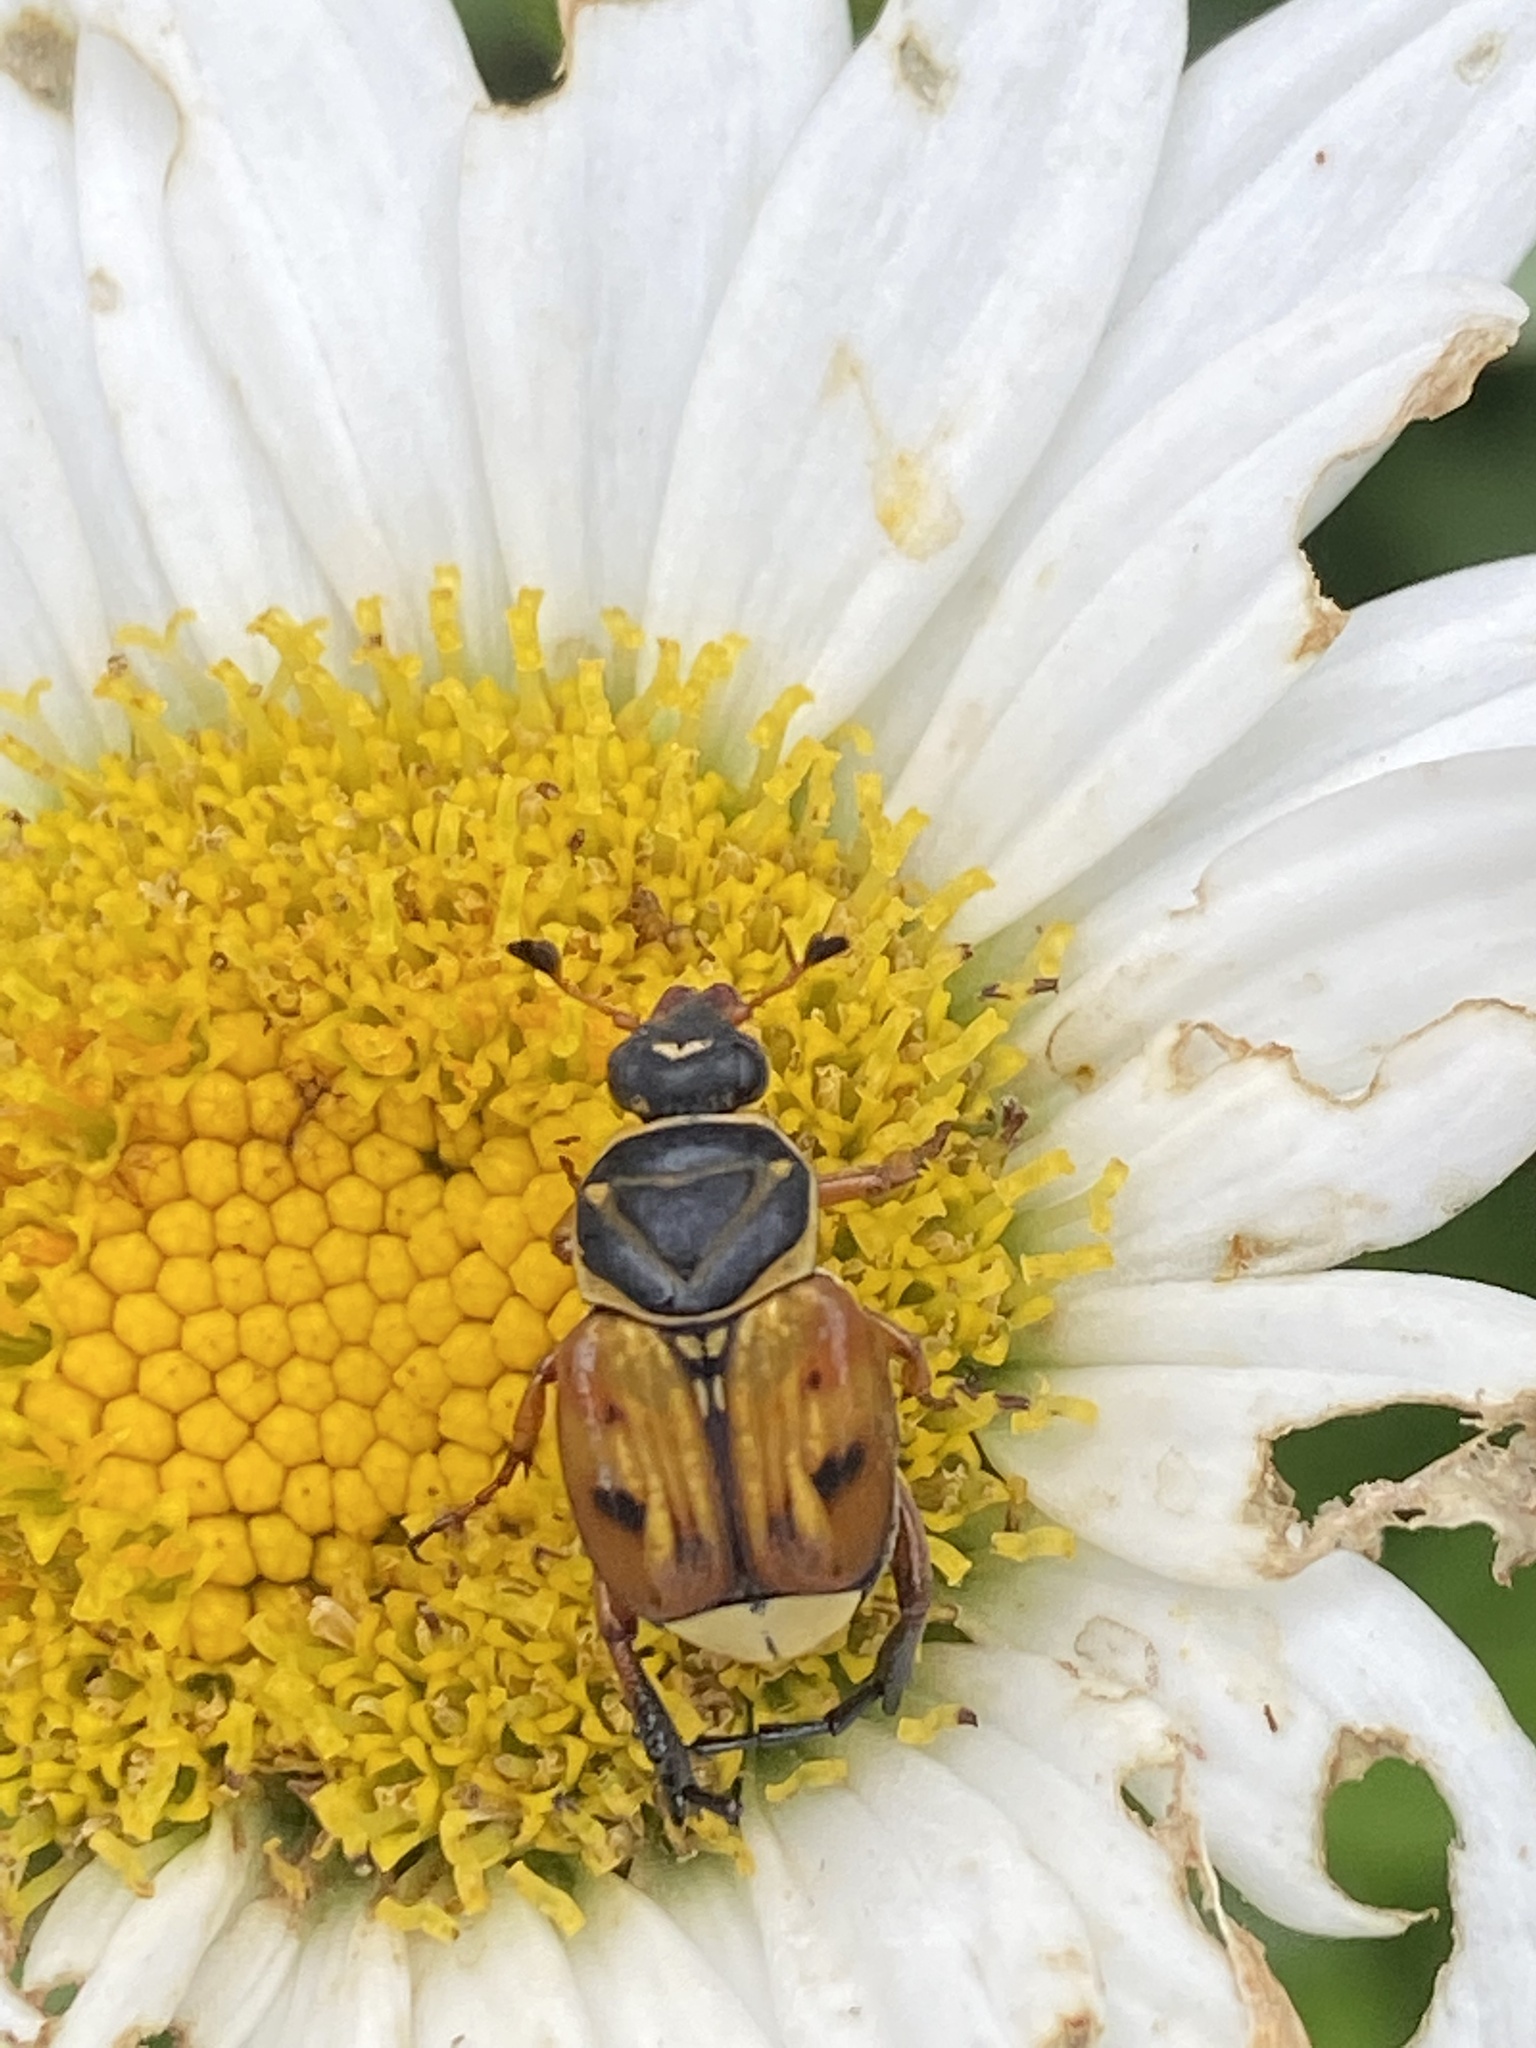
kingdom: Animalia
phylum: Arthropoda
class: Insecta
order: Coleoptera
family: Scarabaeidae
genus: Trigonopeltastes
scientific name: Trigonopeltastes delta
